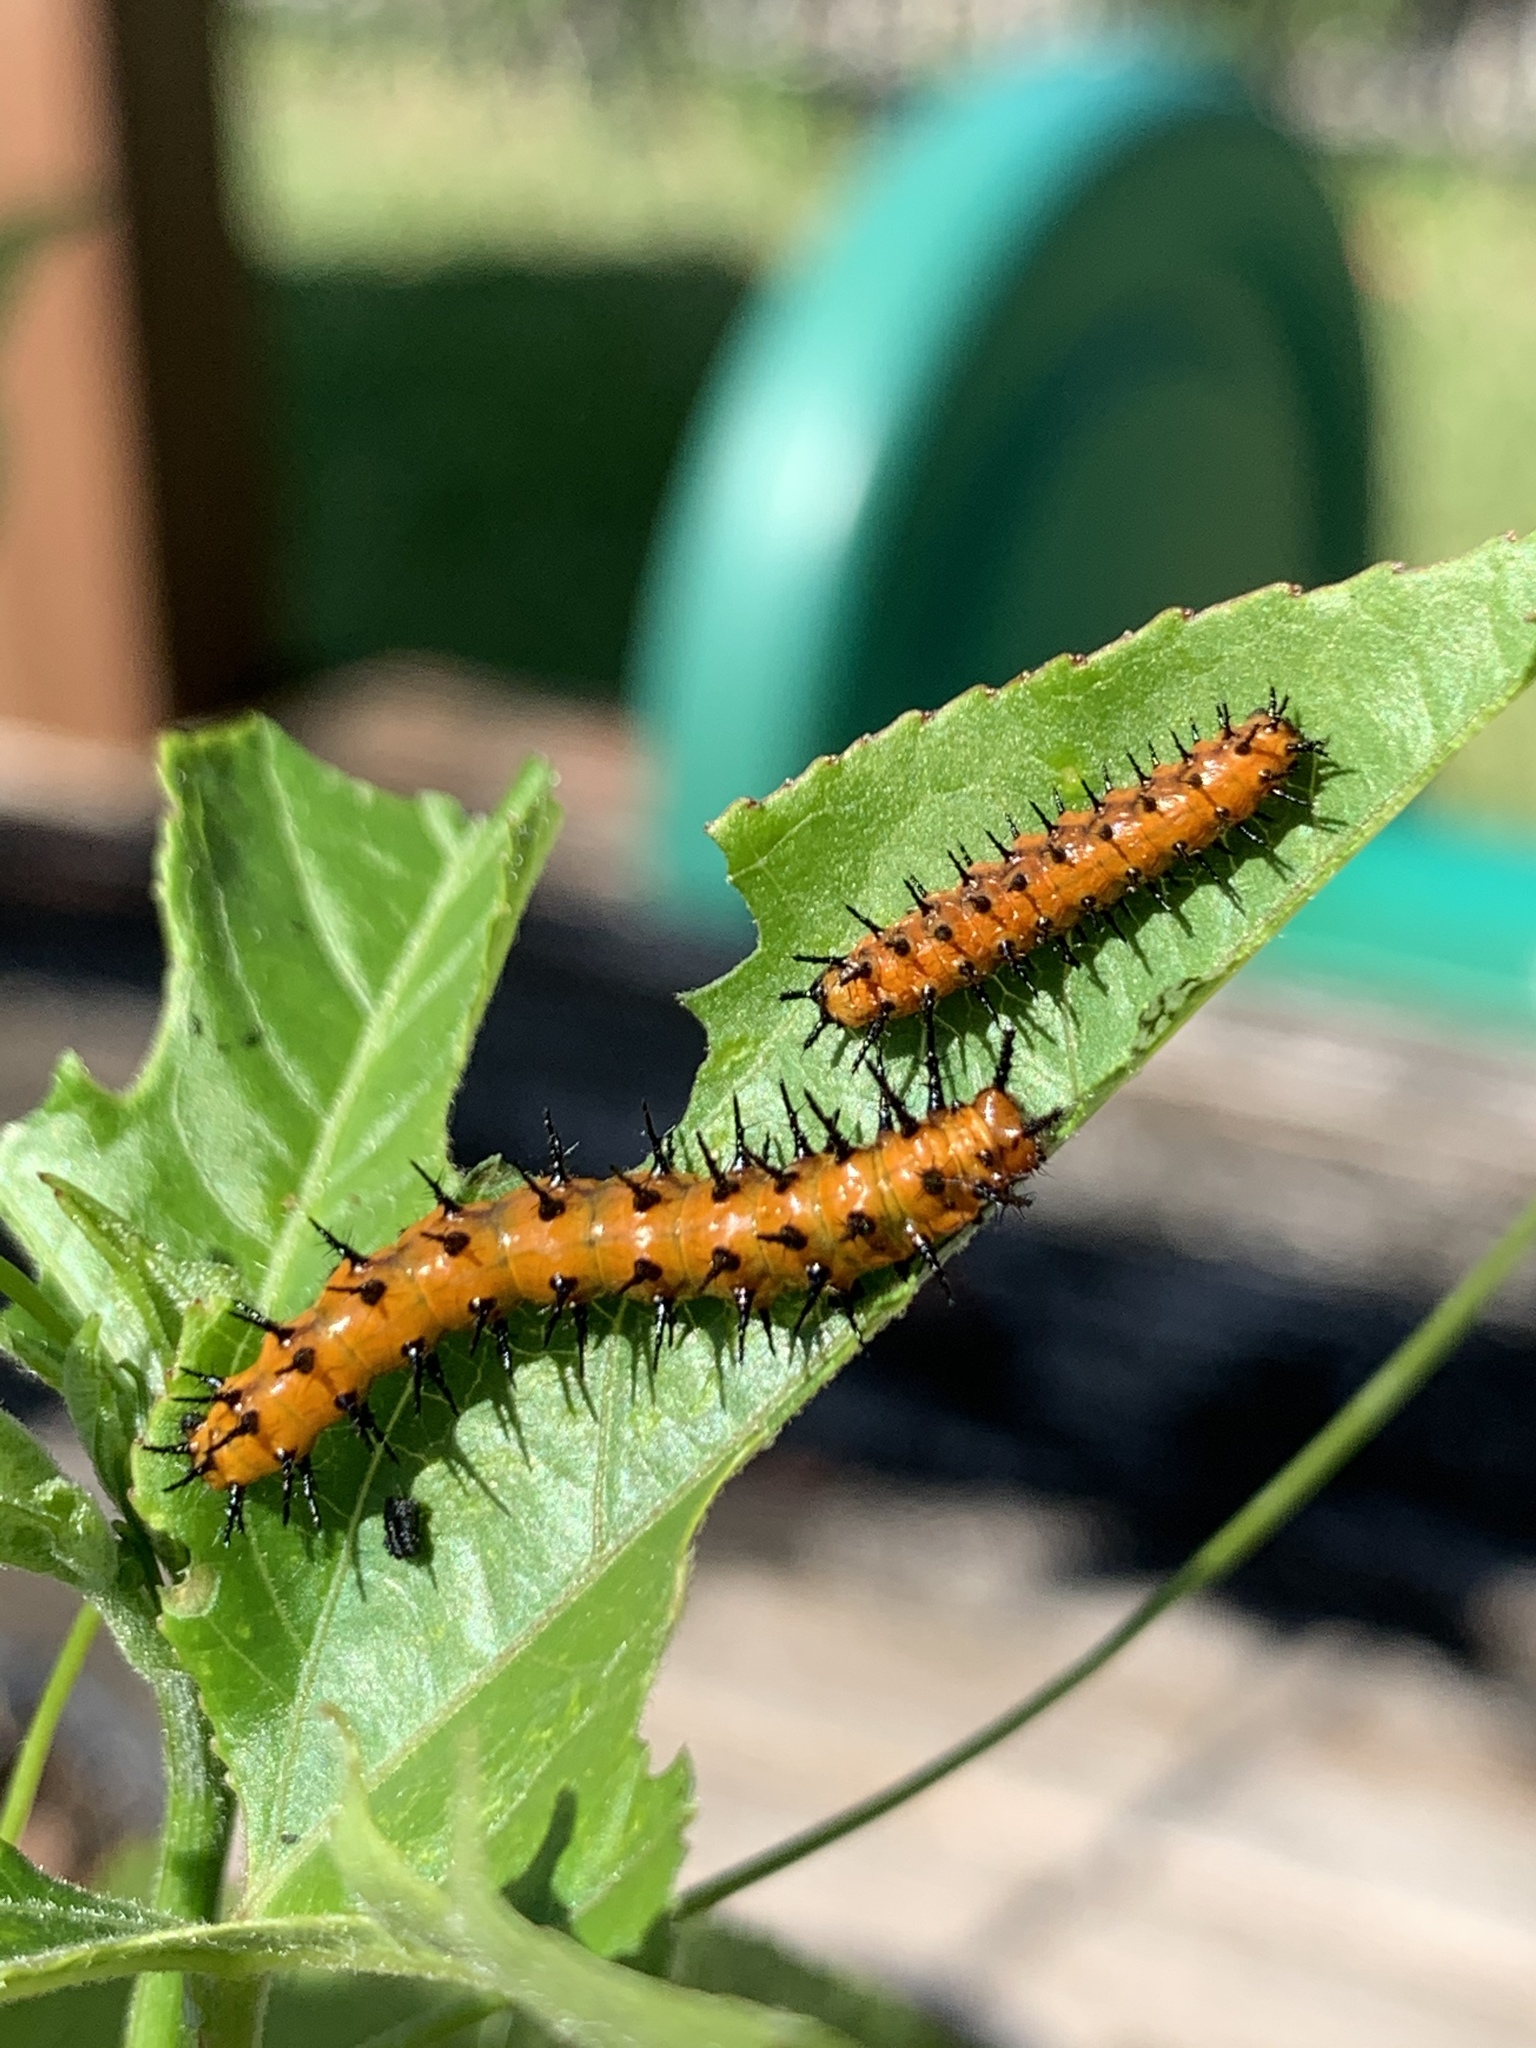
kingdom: Animalia
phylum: Arthropoda
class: Insecta
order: Lepidoptera
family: Nymphalidae
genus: Dione
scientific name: Dione vanillae
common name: Gulf fritillary
